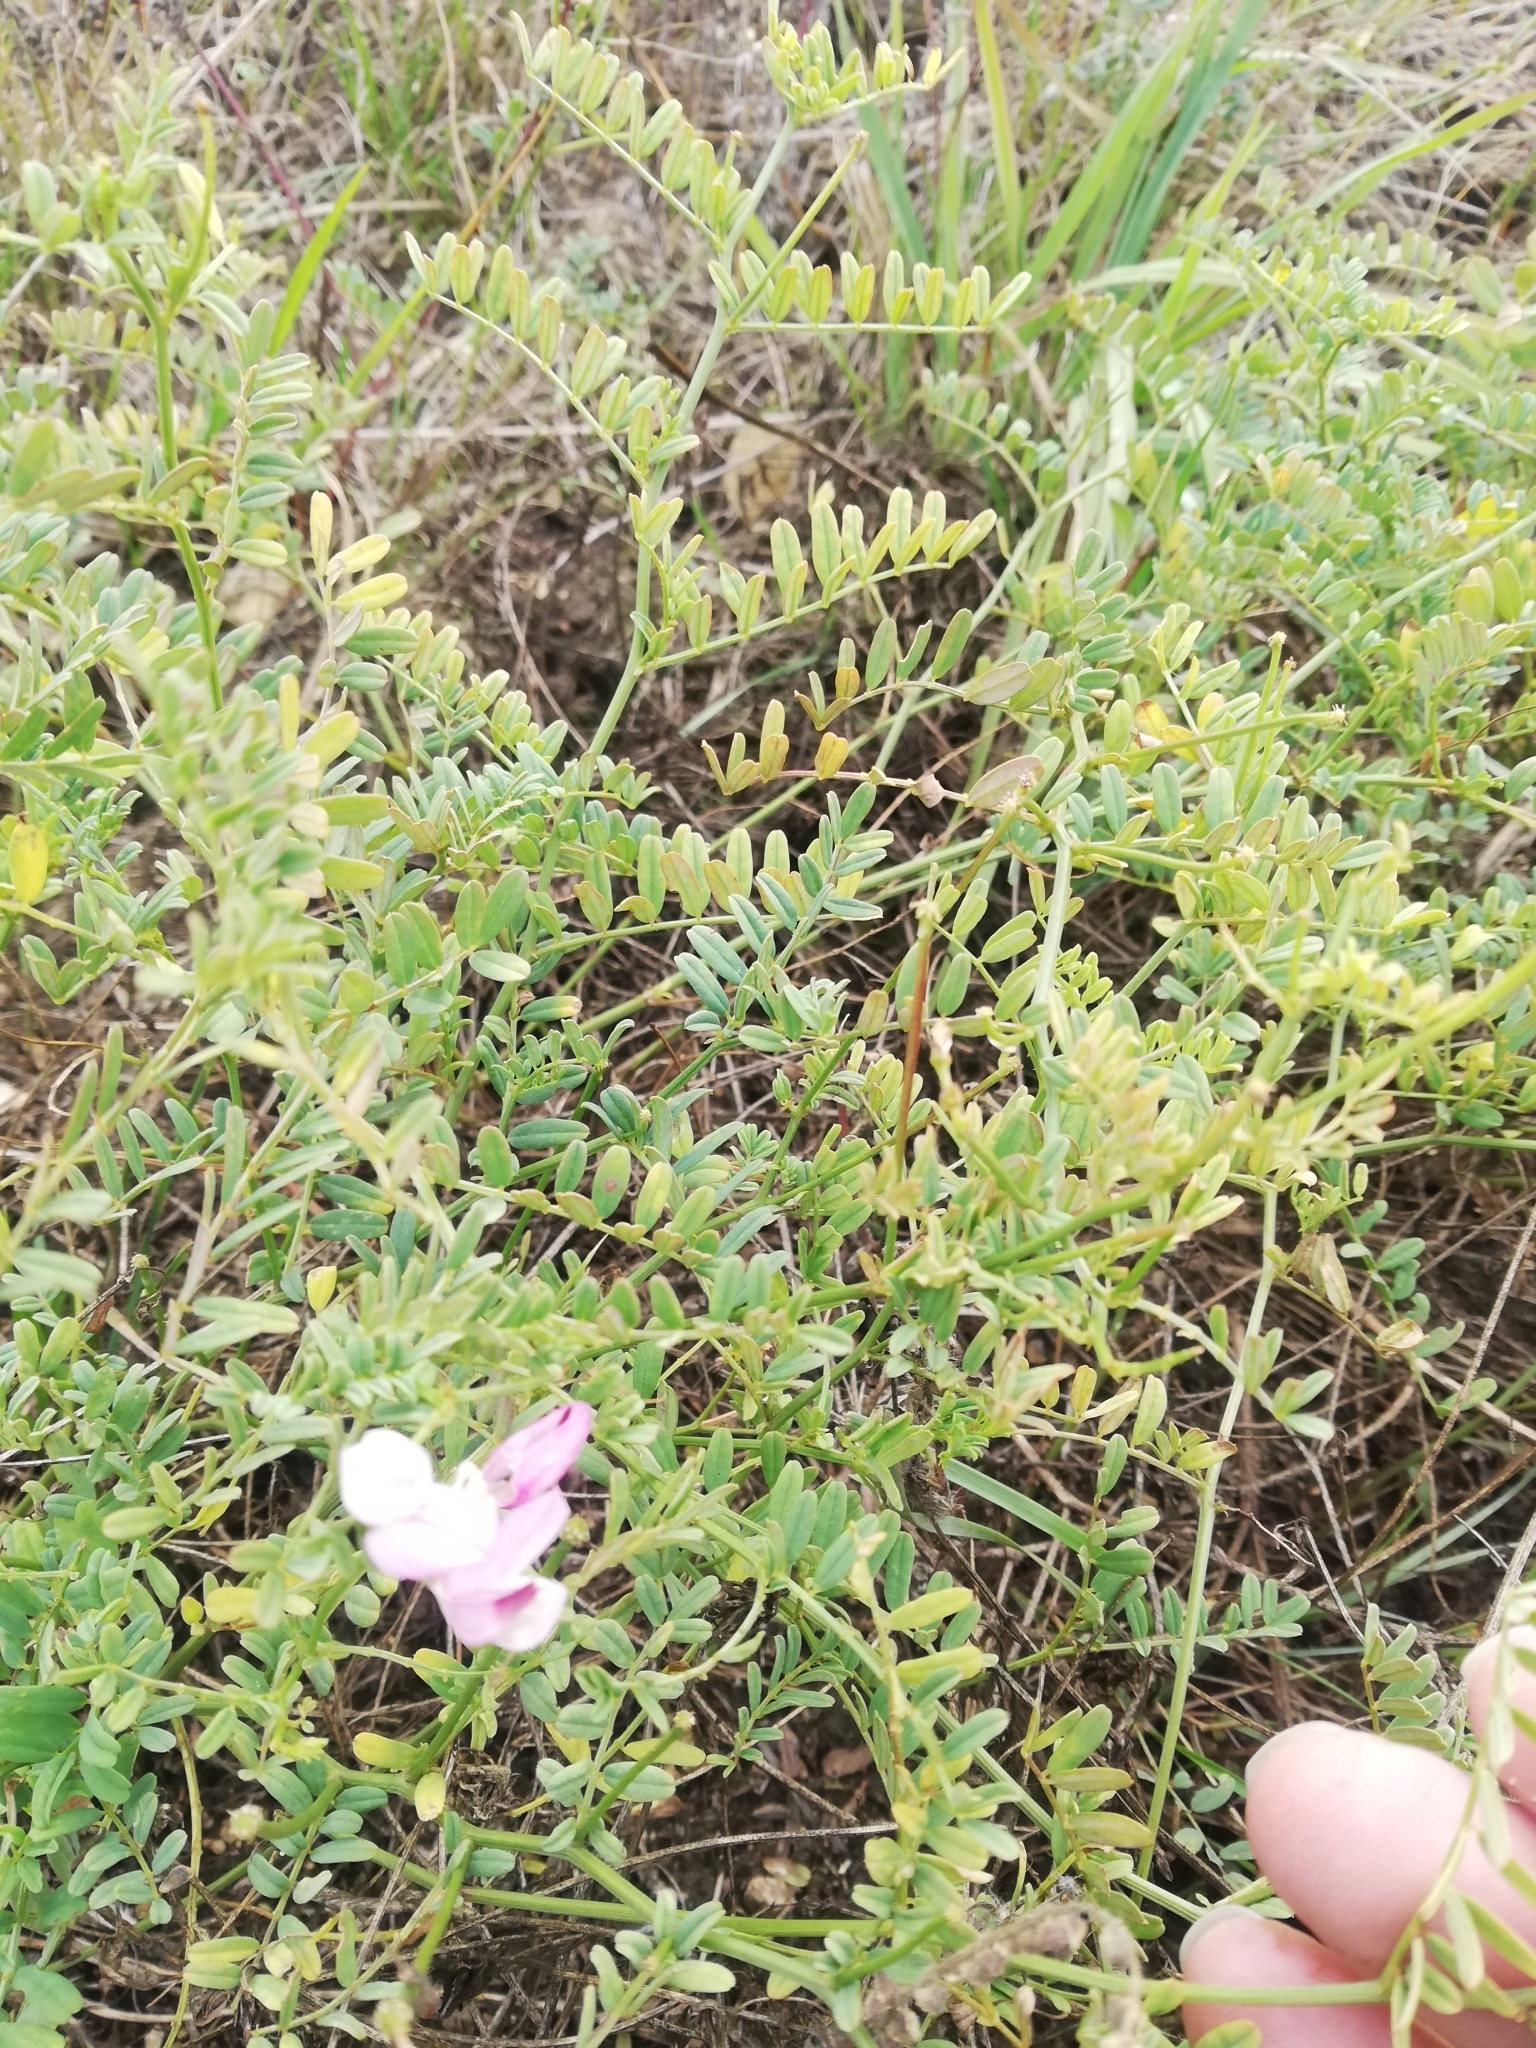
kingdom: Plantae
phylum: Tracheophyta
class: Magnoliopsida
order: Fabales
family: Fabaceae
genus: Coronilla
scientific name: Coronilla varia
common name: Crownvetch
